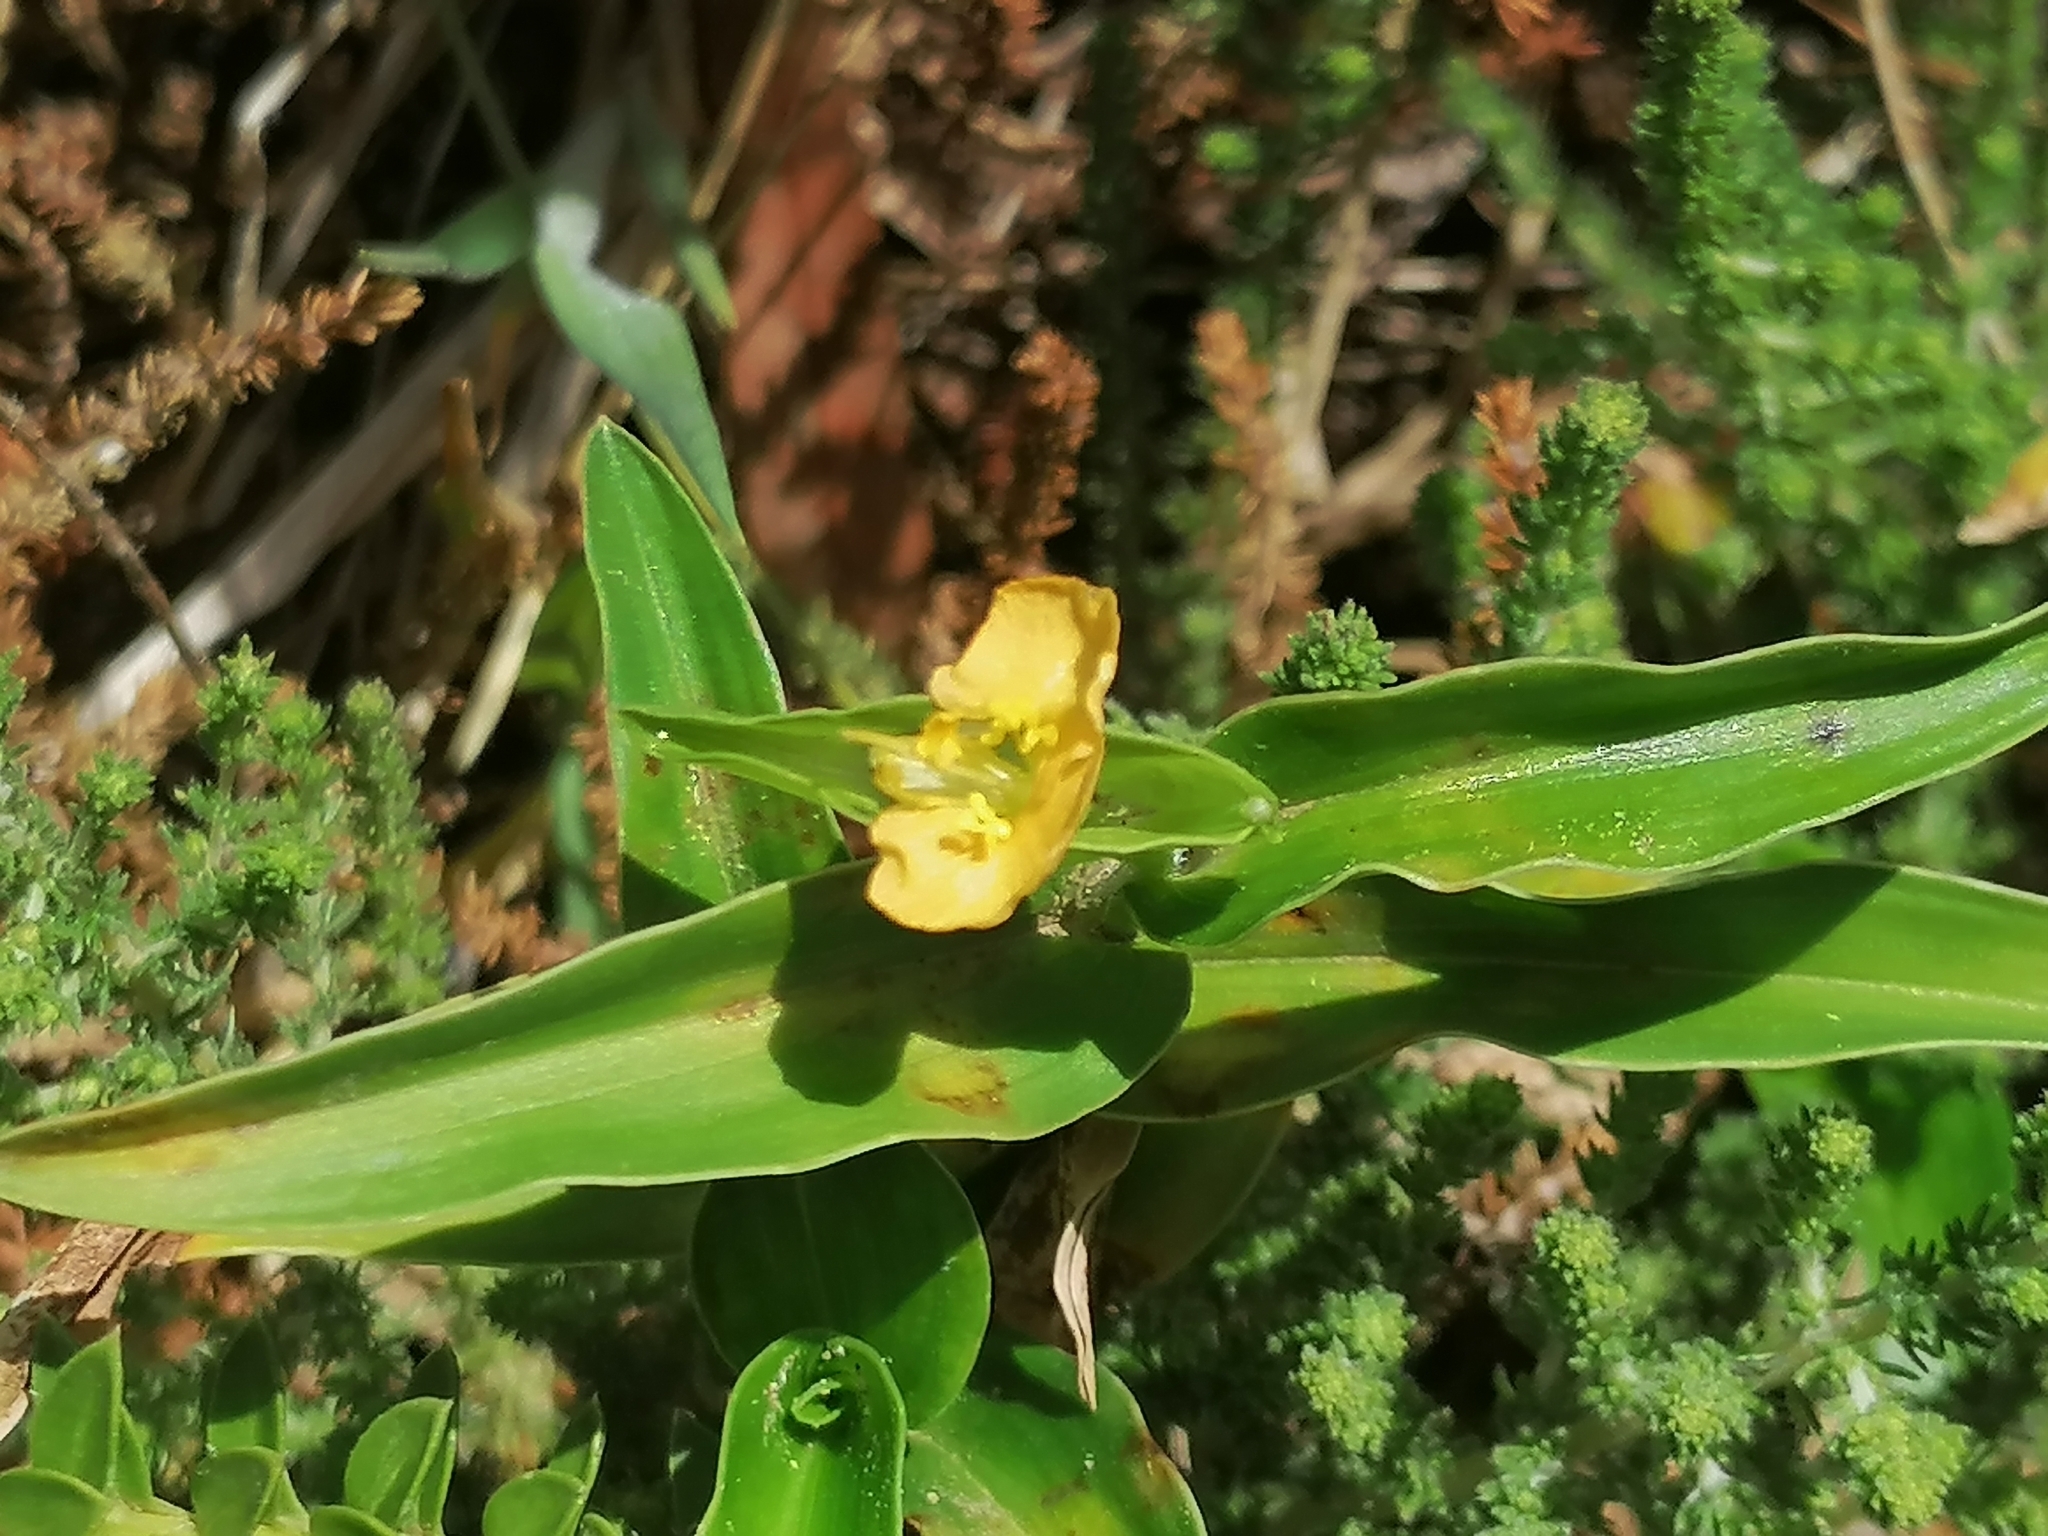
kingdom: Plantae
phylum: Tracheophyta
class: Liliopsida
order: Commelinales
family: Commelinaceae
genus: Commelina
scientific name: Commelina africana
